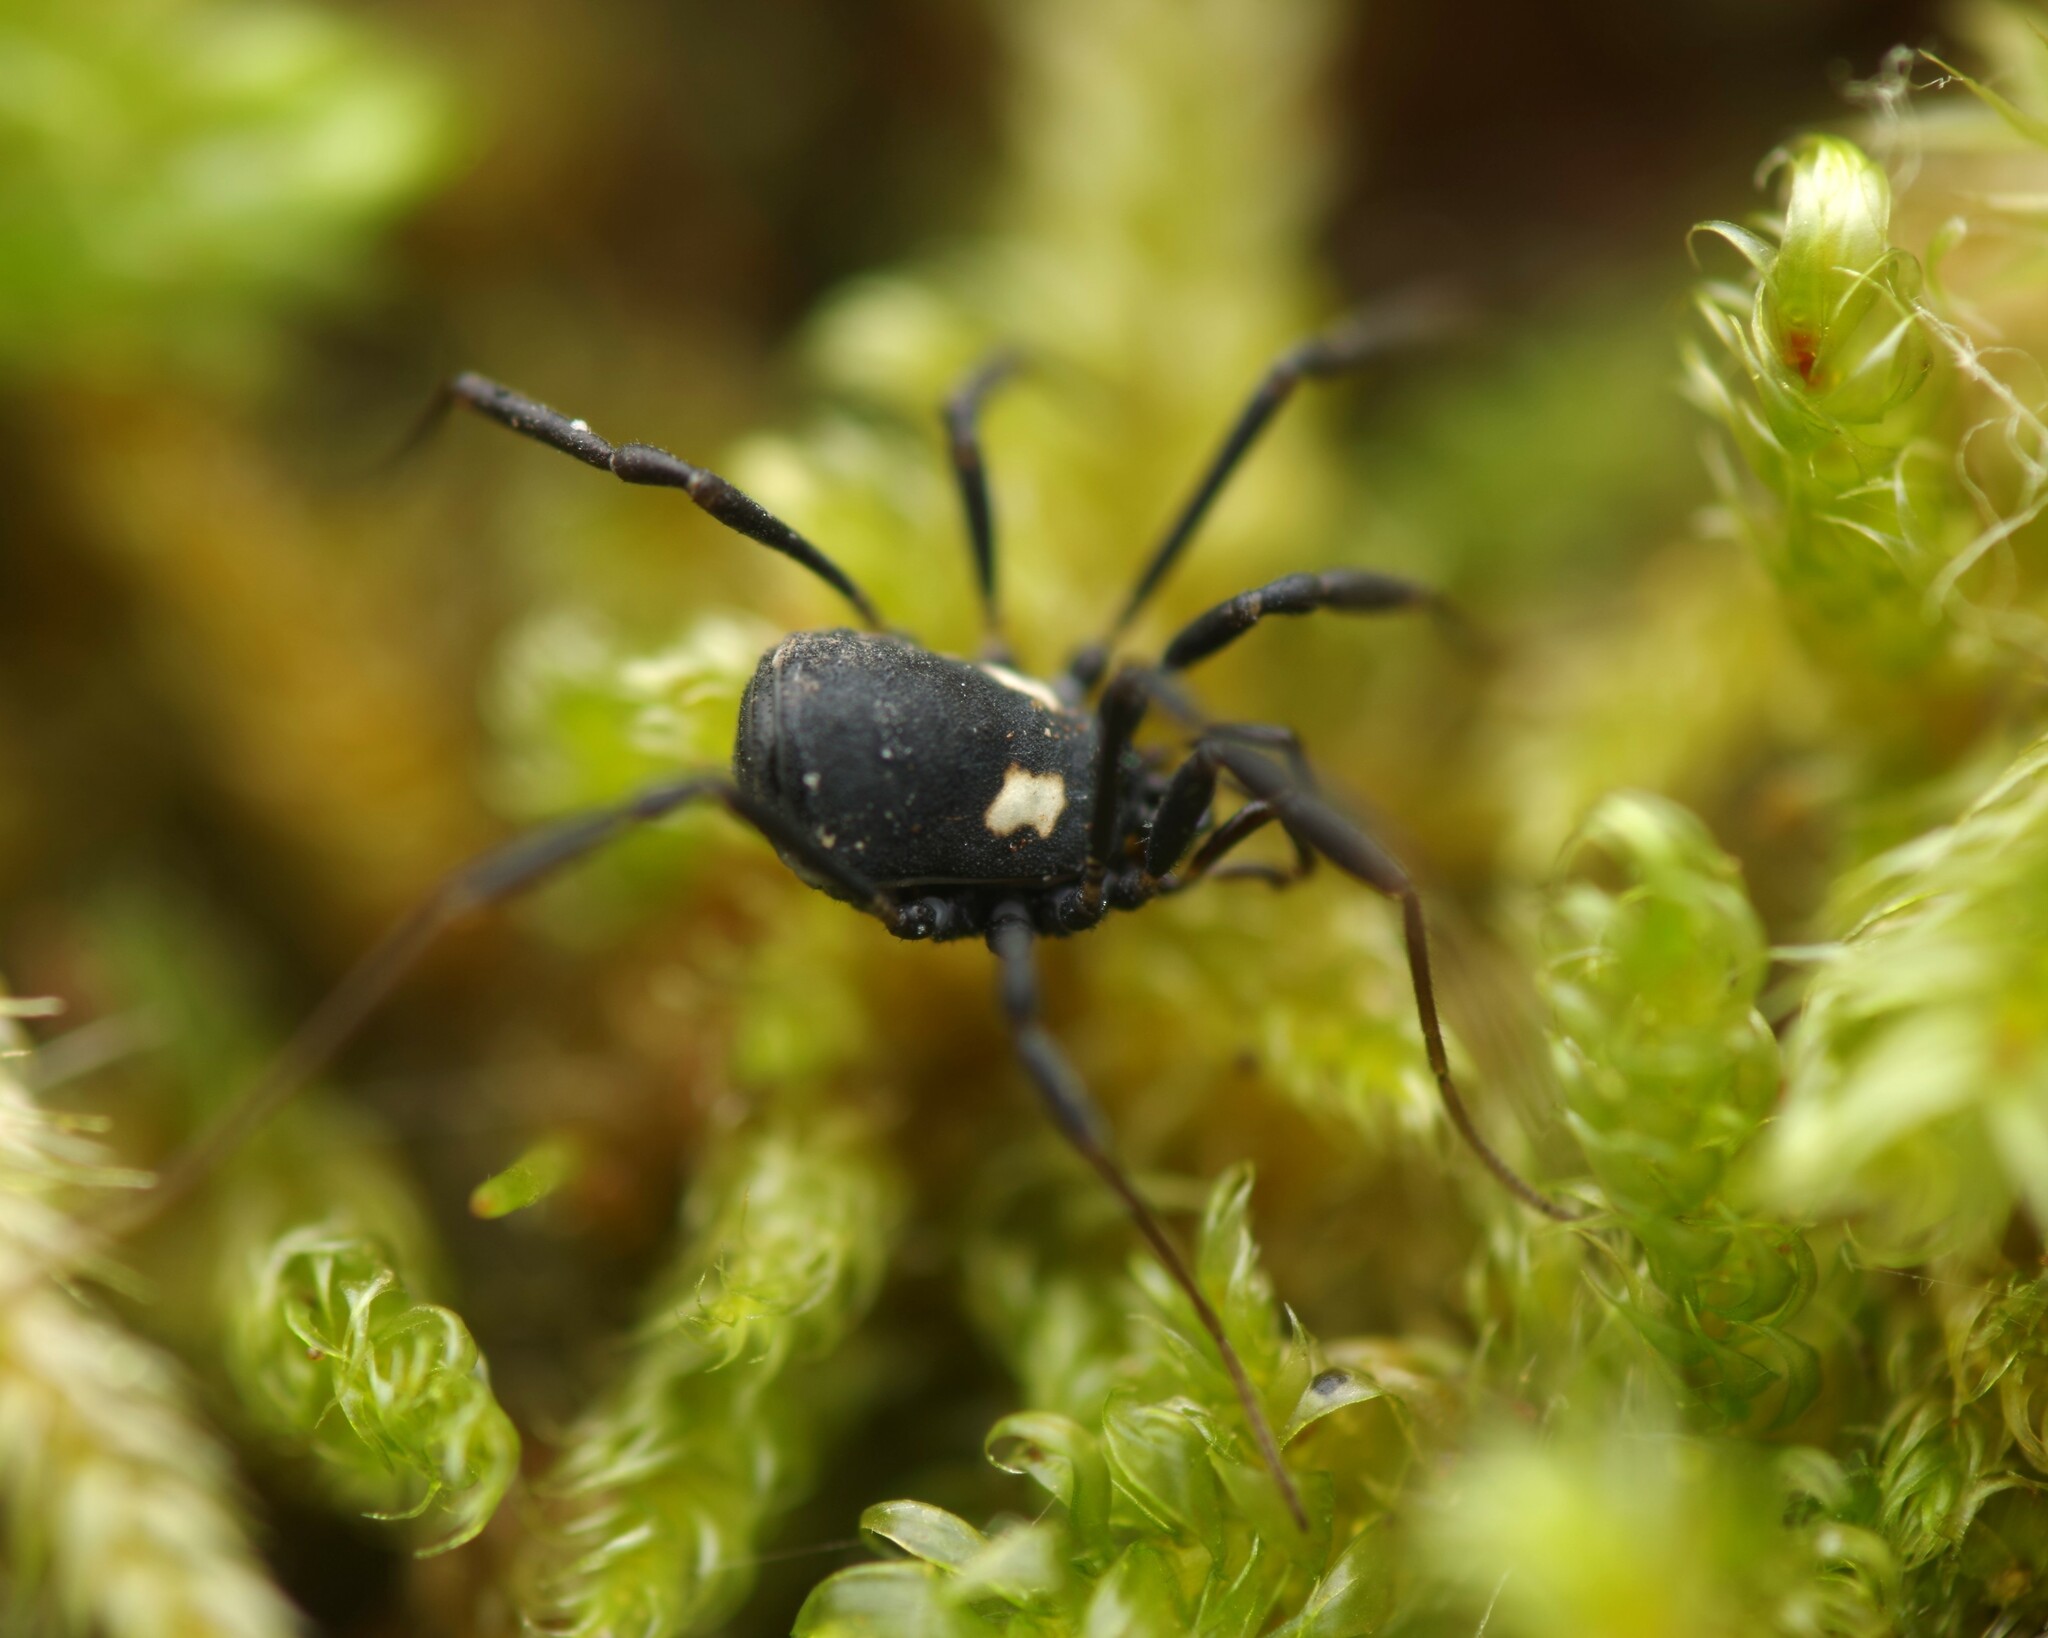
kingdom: Animalia
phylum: Arthropoda
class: Arachnida
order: Opiliones
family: Nemastomatidae
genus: Nemastoma
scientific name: Nemastoma bimaculatum
